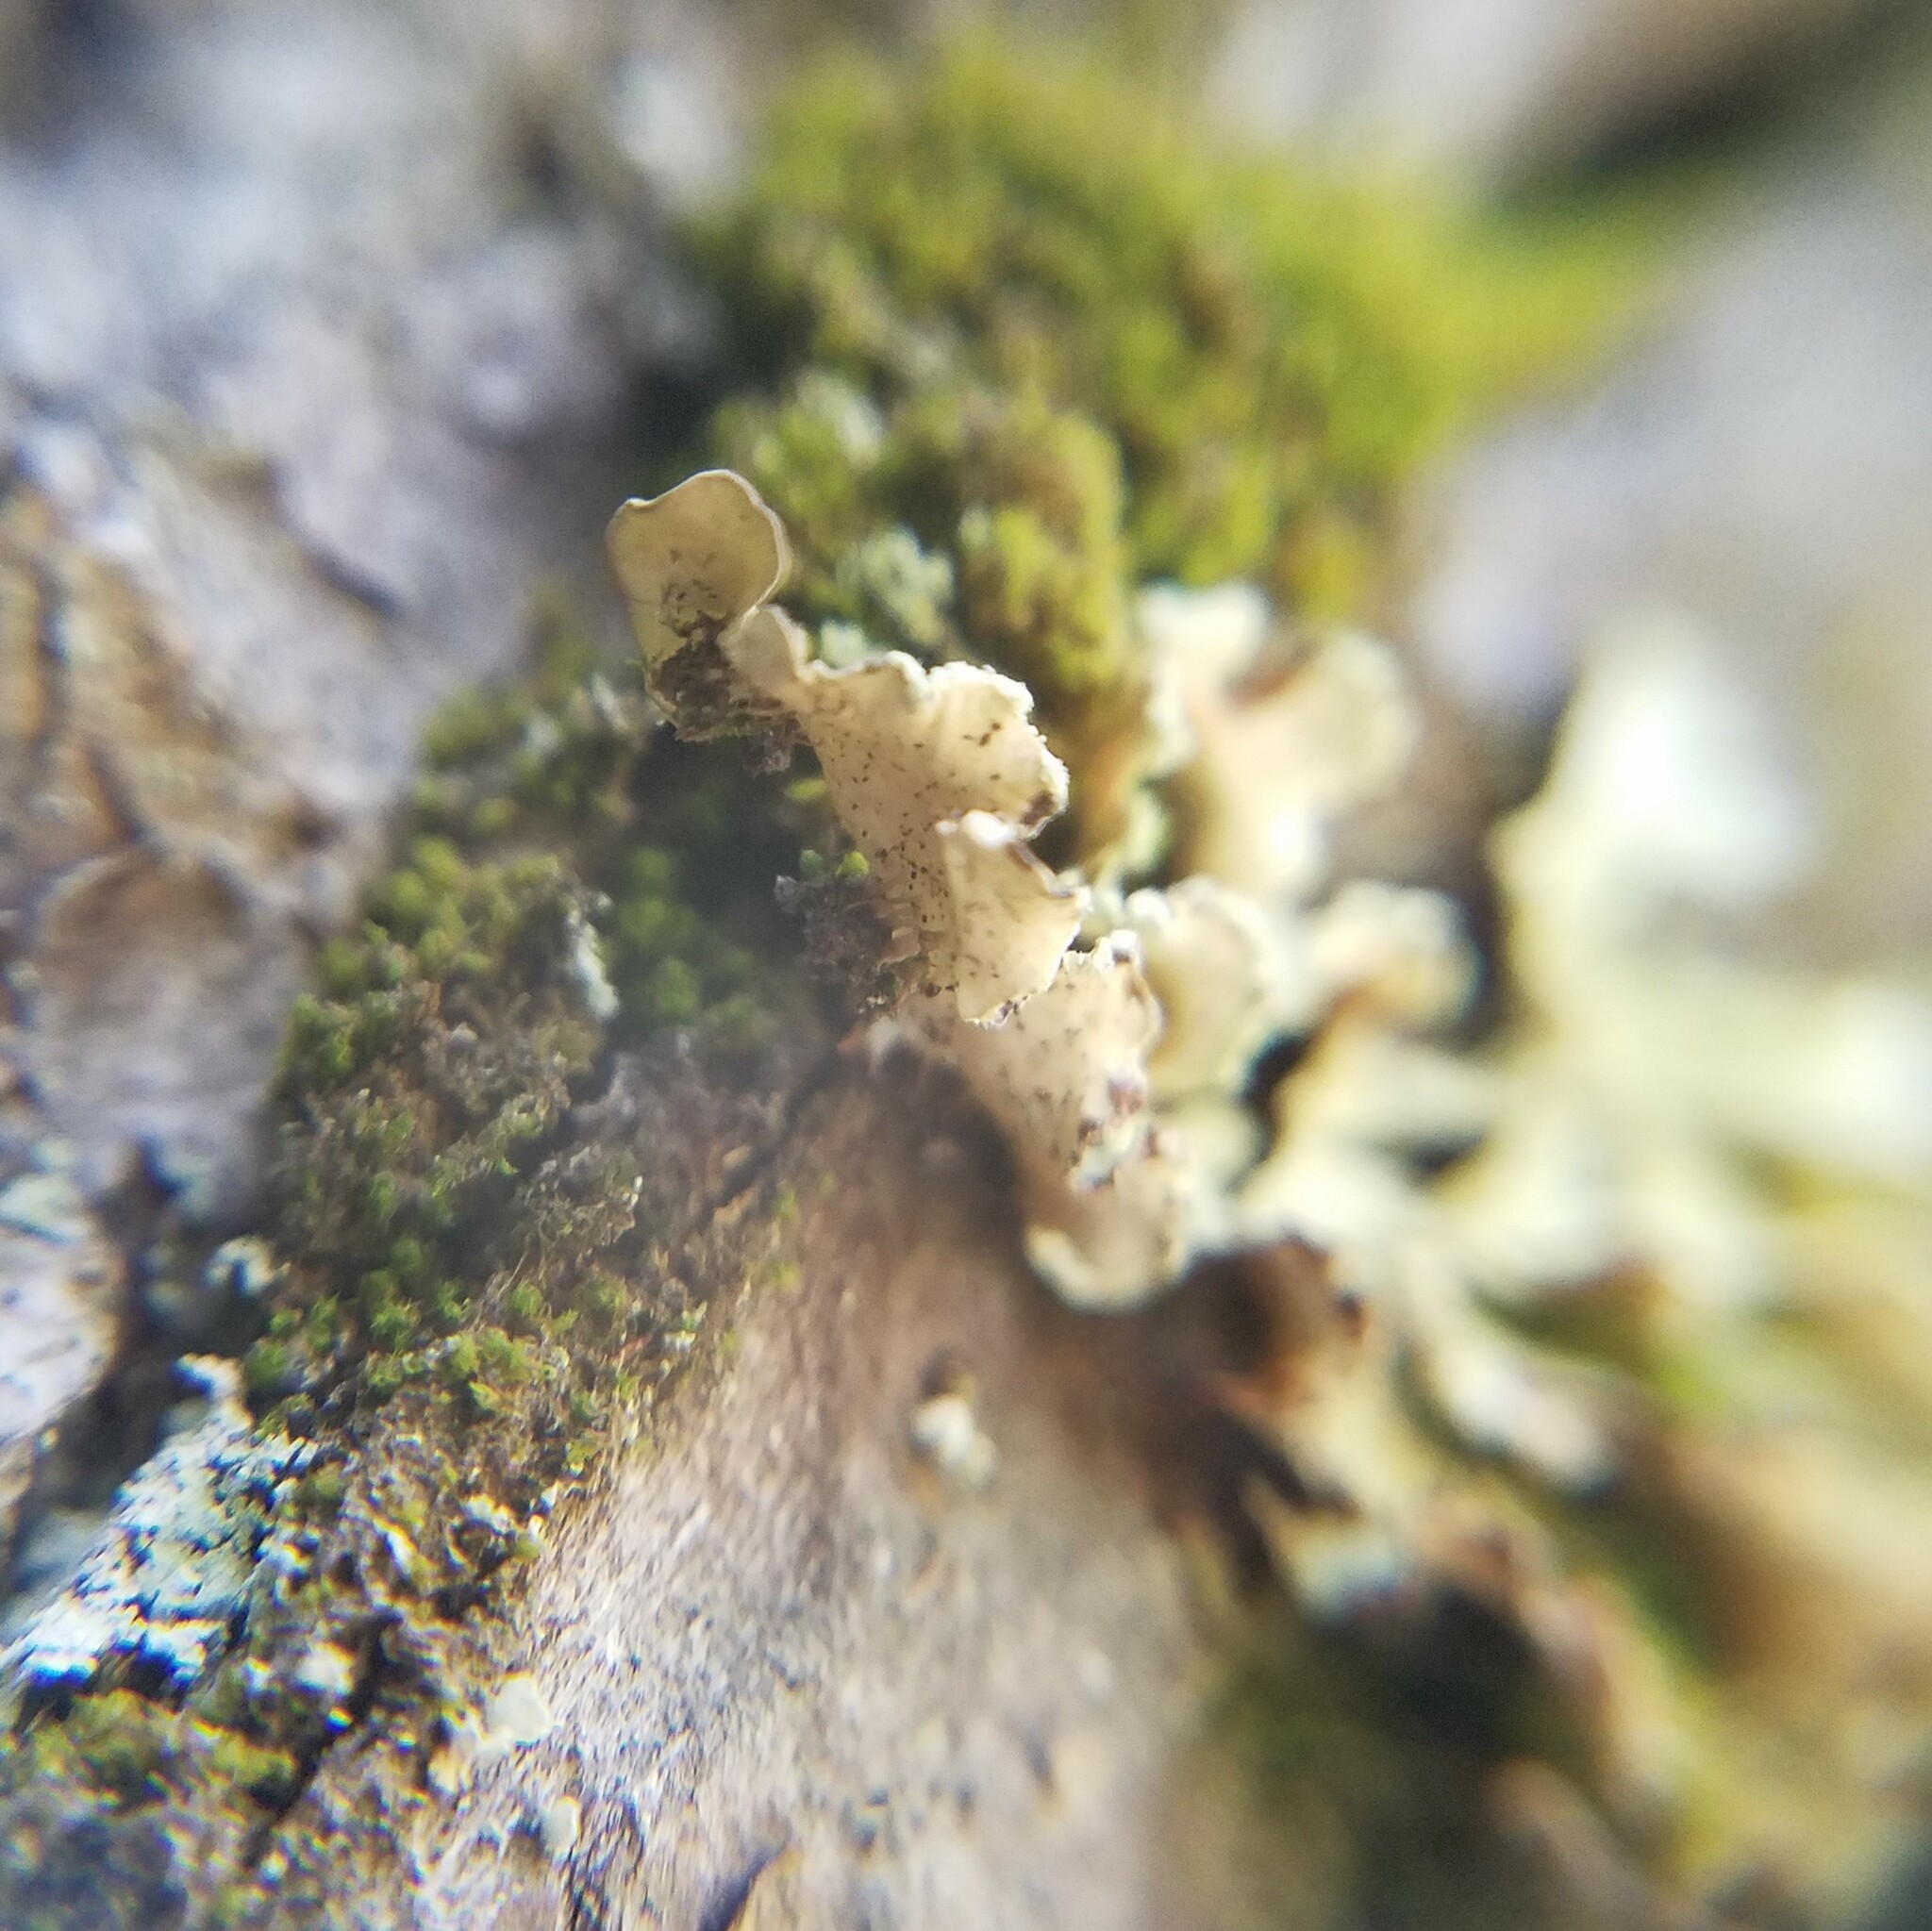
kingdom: Fungi
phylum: Ascomycota
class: Lecanoromycetes
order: Lecanorales
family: Parmeliaceae
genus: Usnocetraria
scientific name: Usnocetraria oakesiana
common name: Yellow ribbon lichen
